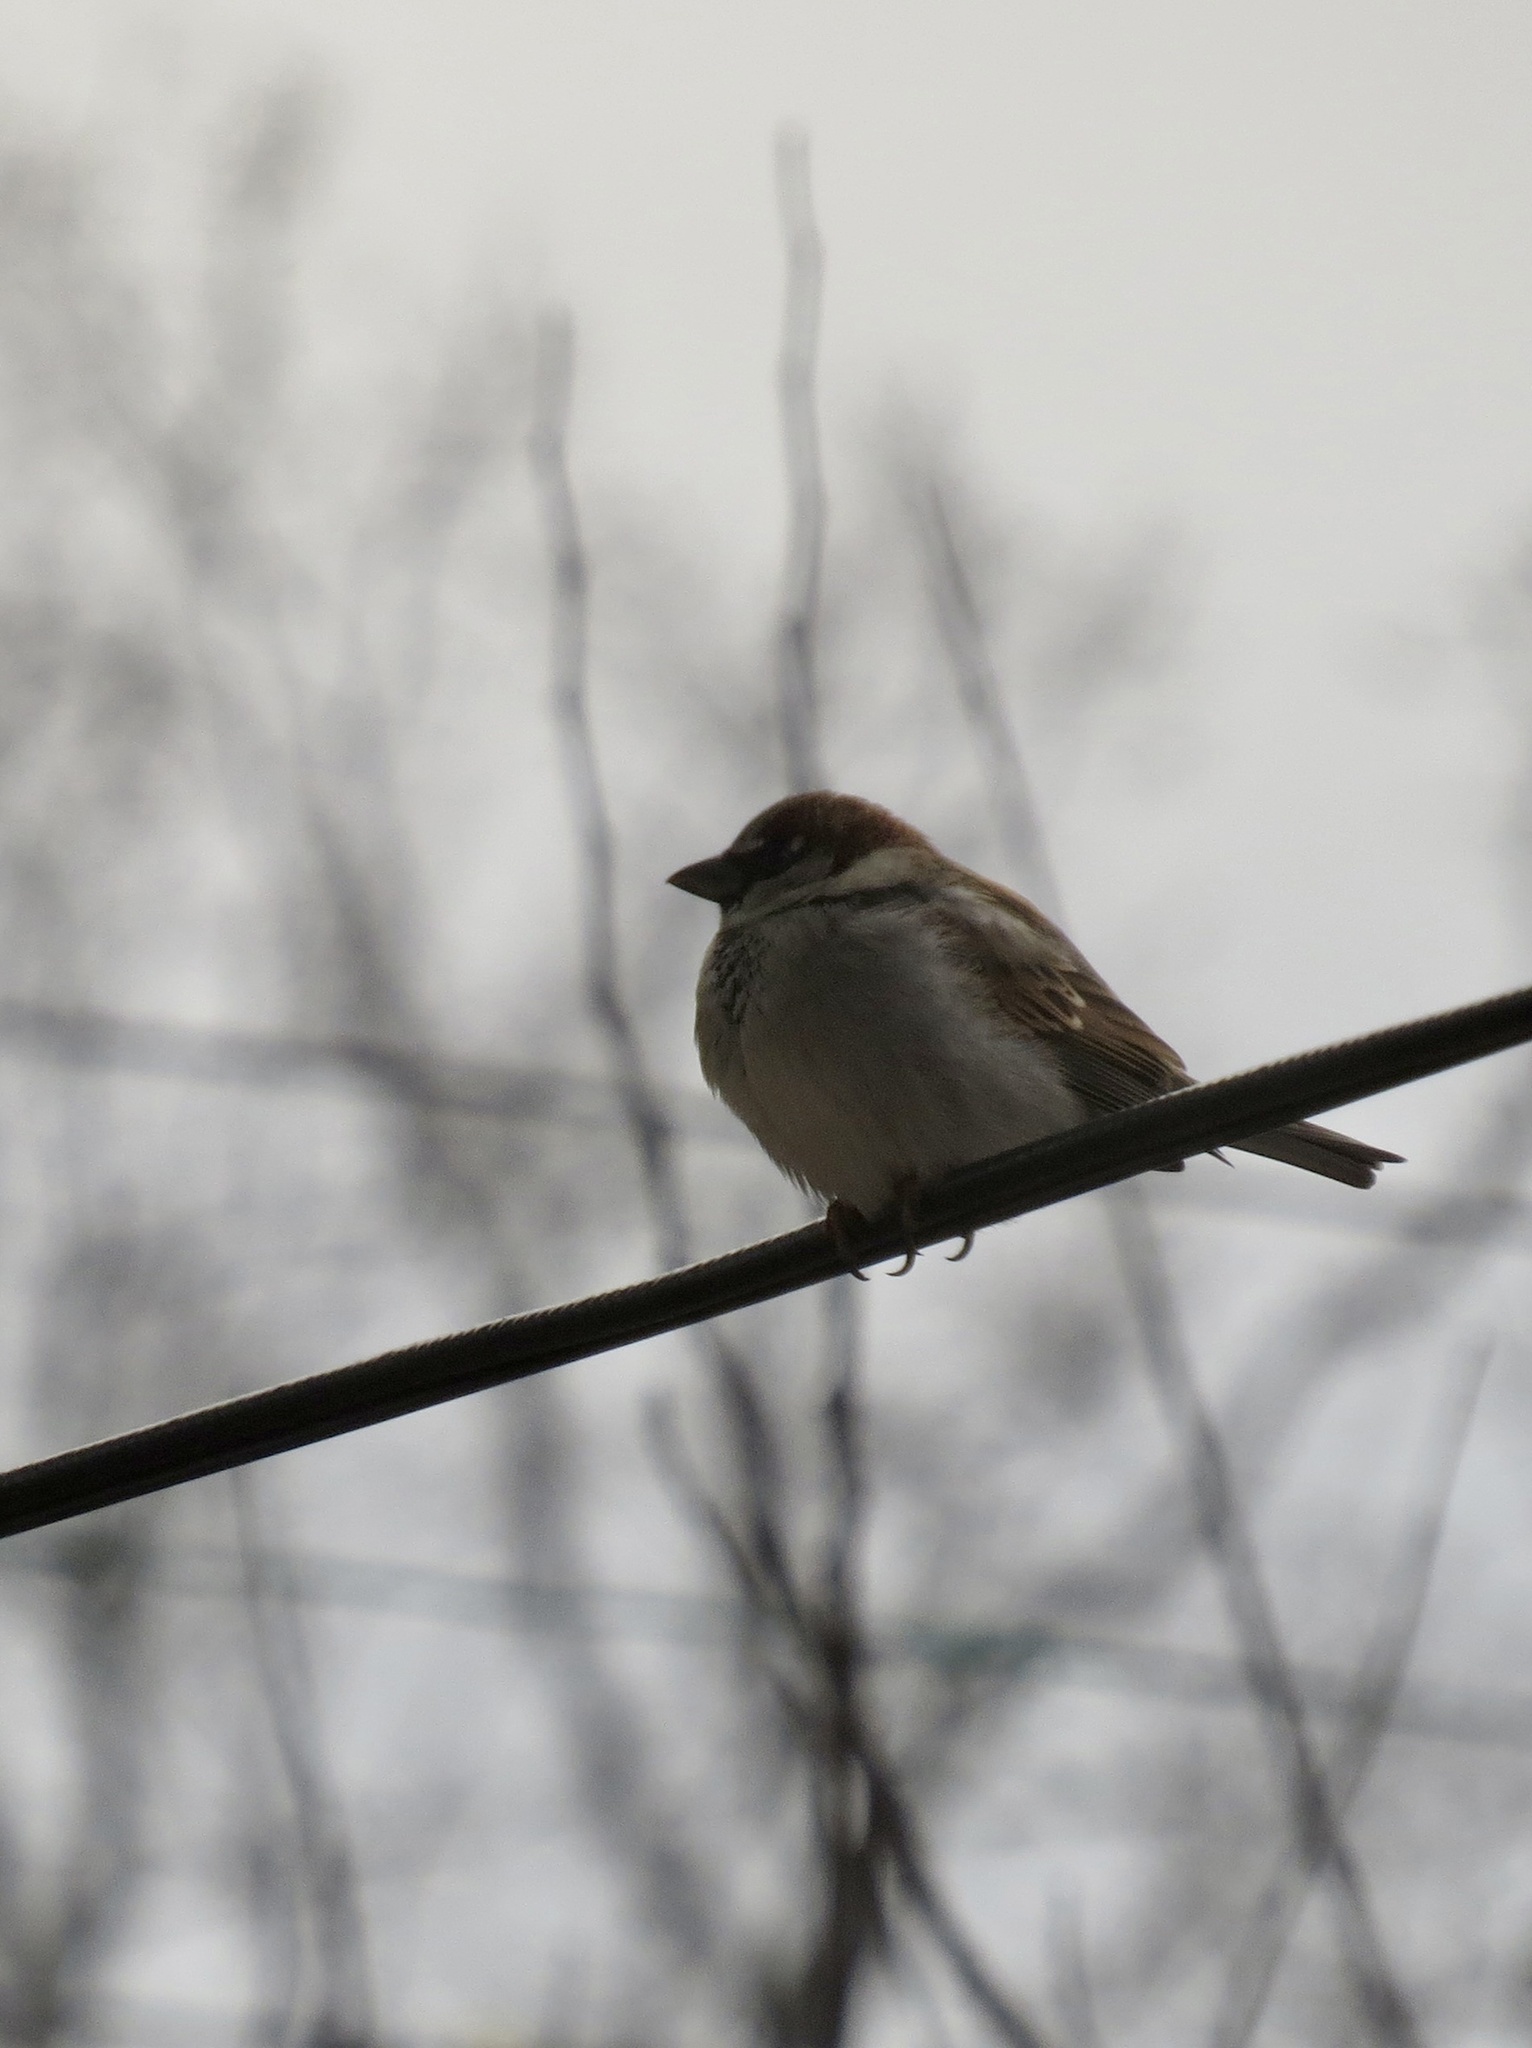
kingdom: Animalia
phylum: Chordata
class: Aves
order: Passeriformes
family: Passeridae
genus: Passer
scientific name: Passer domesticus
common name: House sparrow
